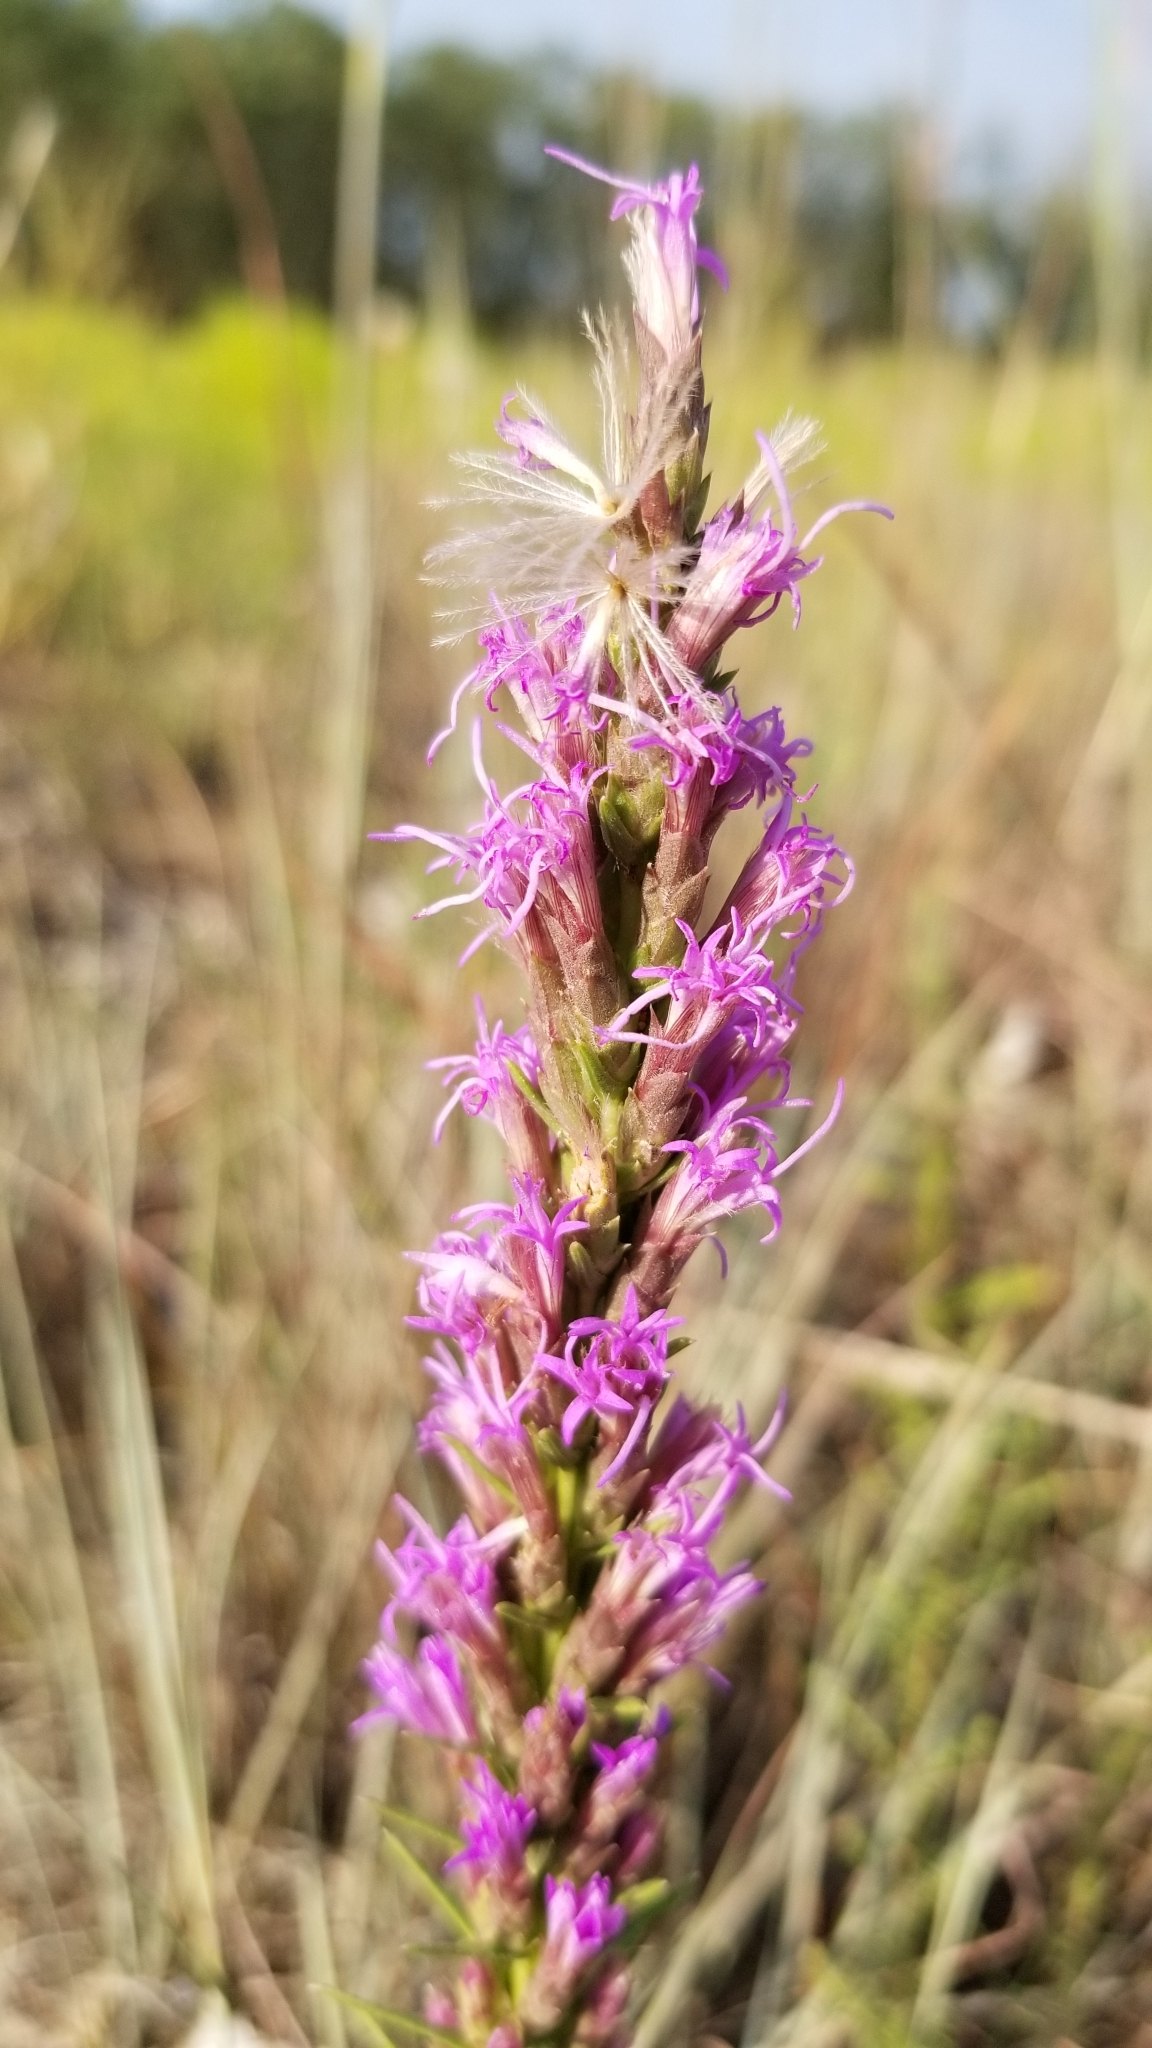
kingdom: Plantae
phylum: Tracheophyta
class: Magnoliopsida
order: Asterales
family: Asteraceae
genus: Liatris
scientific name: Liatris punctata
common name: Dotted gayfeather
